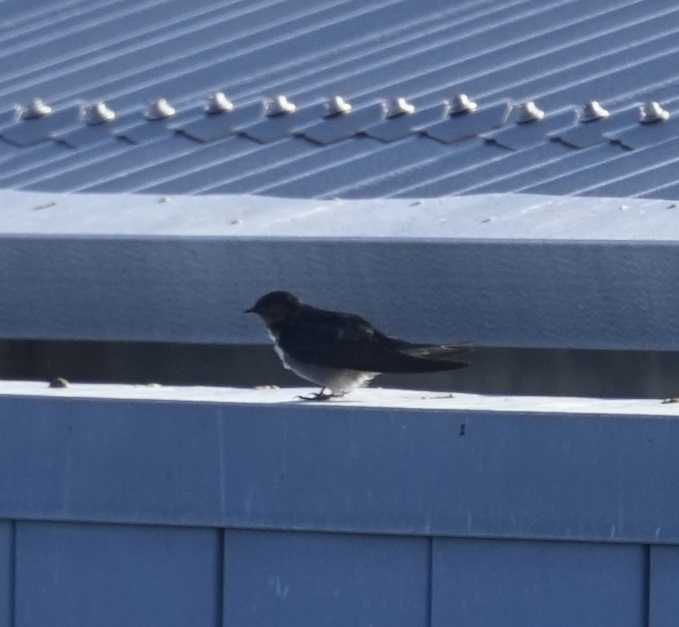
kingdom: Animalia
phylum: Chordata
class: Aves
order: Passeriformes
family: Hirundinidae
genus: Hirundo
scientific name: Hirundo neoxena
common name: Welcome swallow
